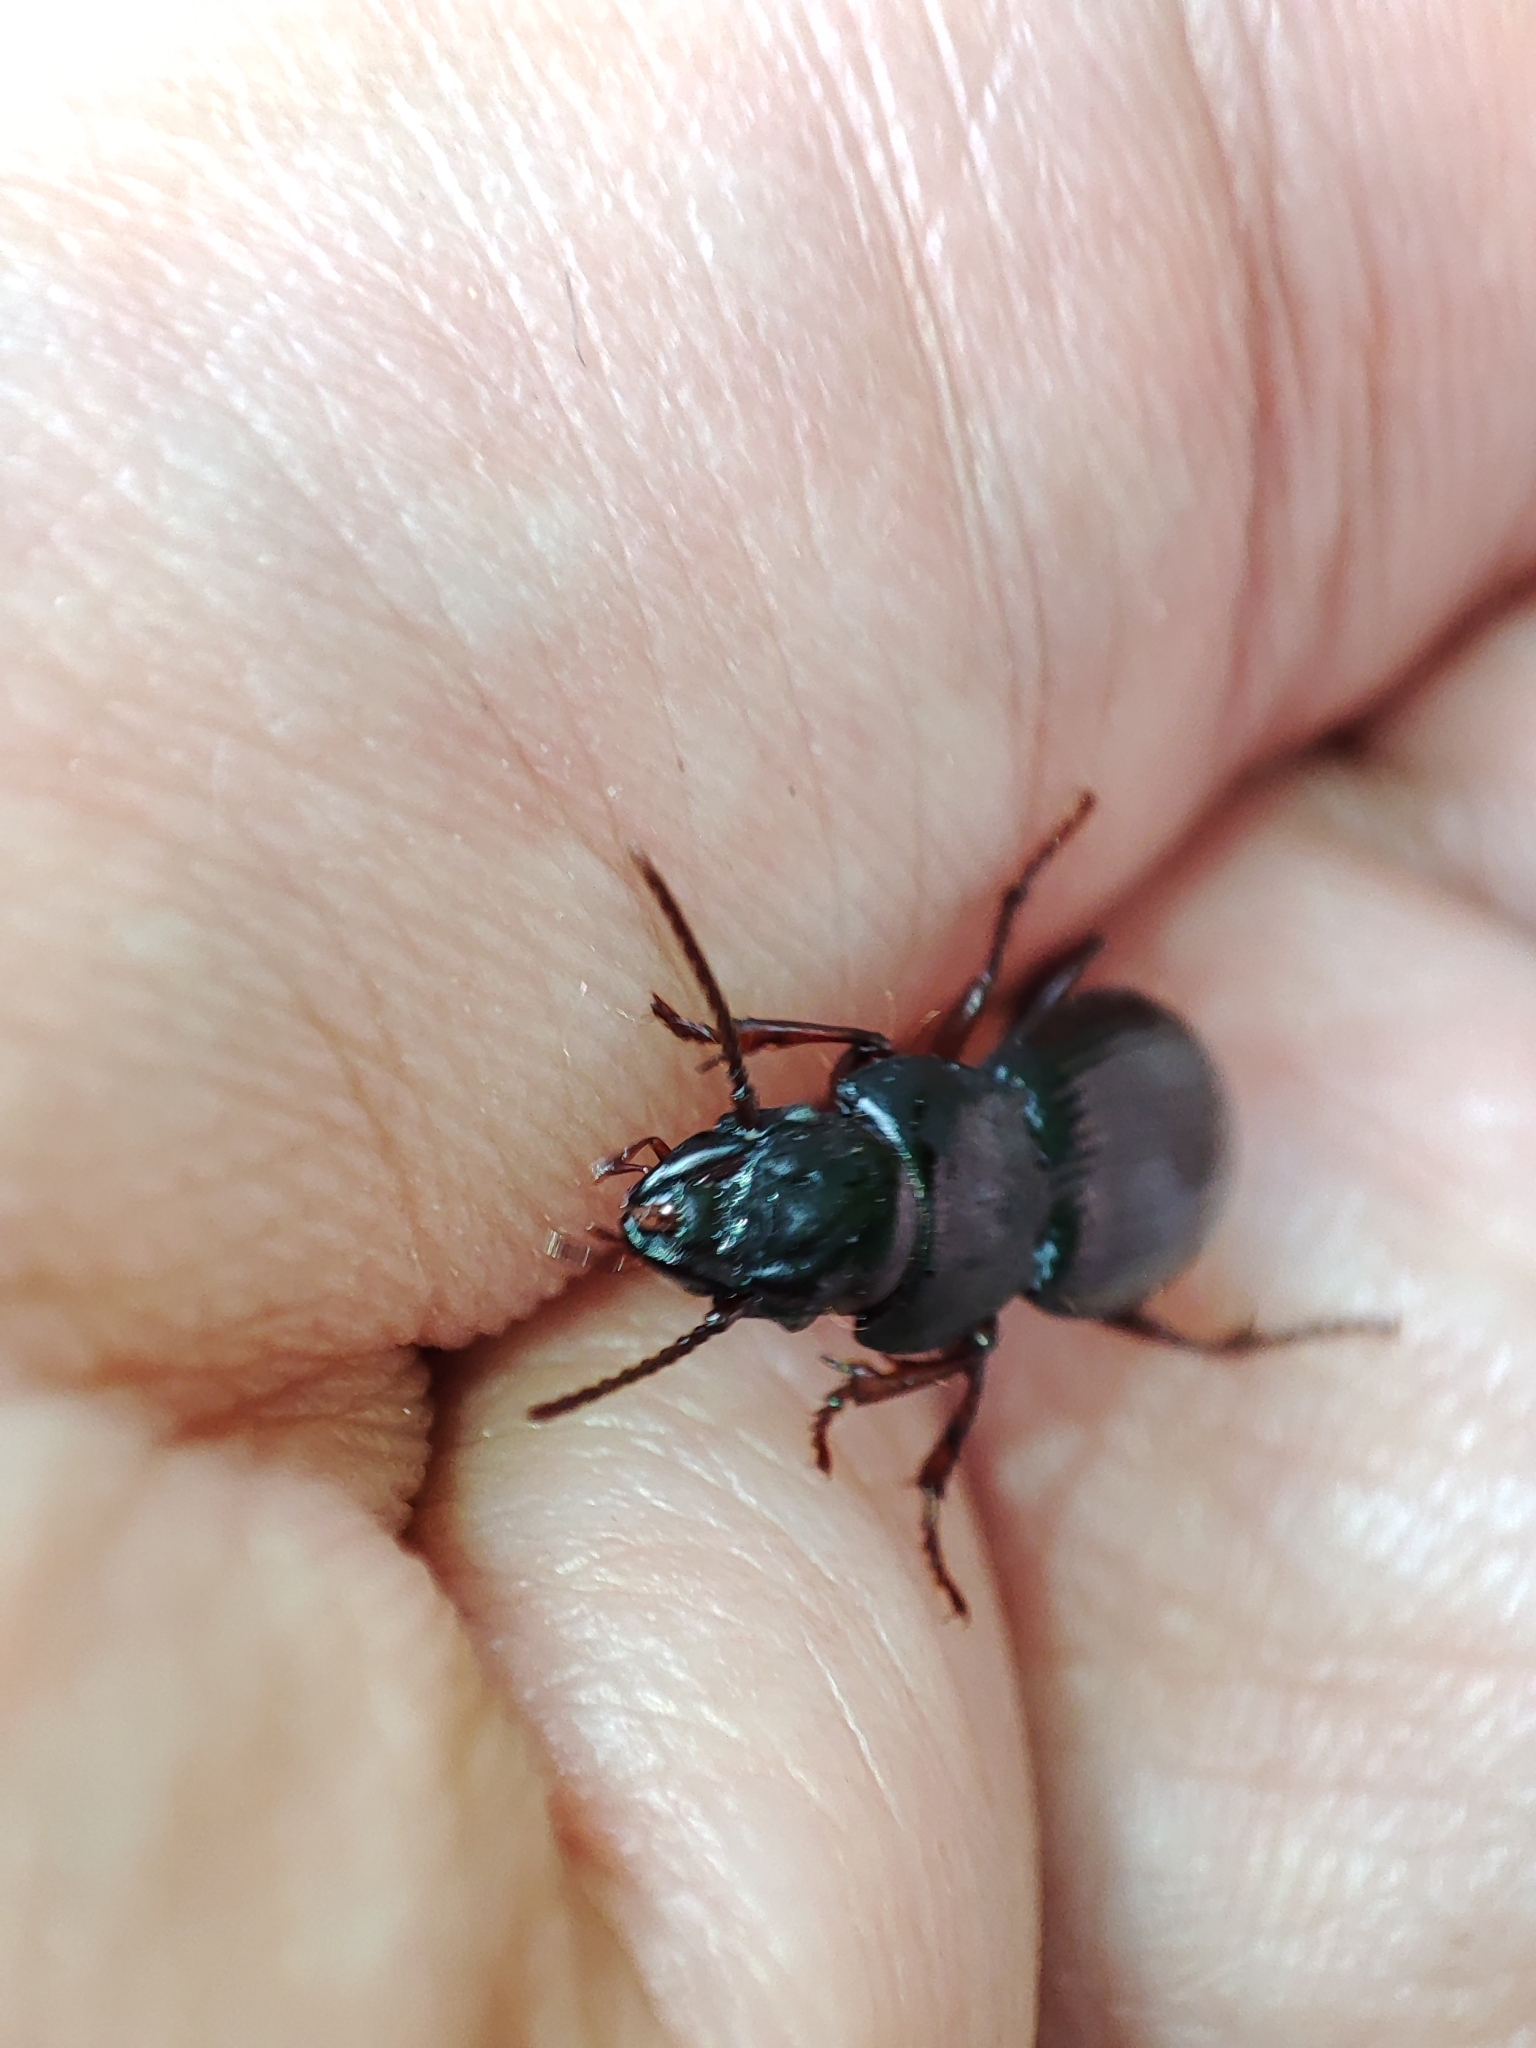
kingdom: Animalia
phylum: Arthropoda
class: Insecta
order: Coleoptera
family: Carabidae
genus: Molops
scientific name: Molops piceus
